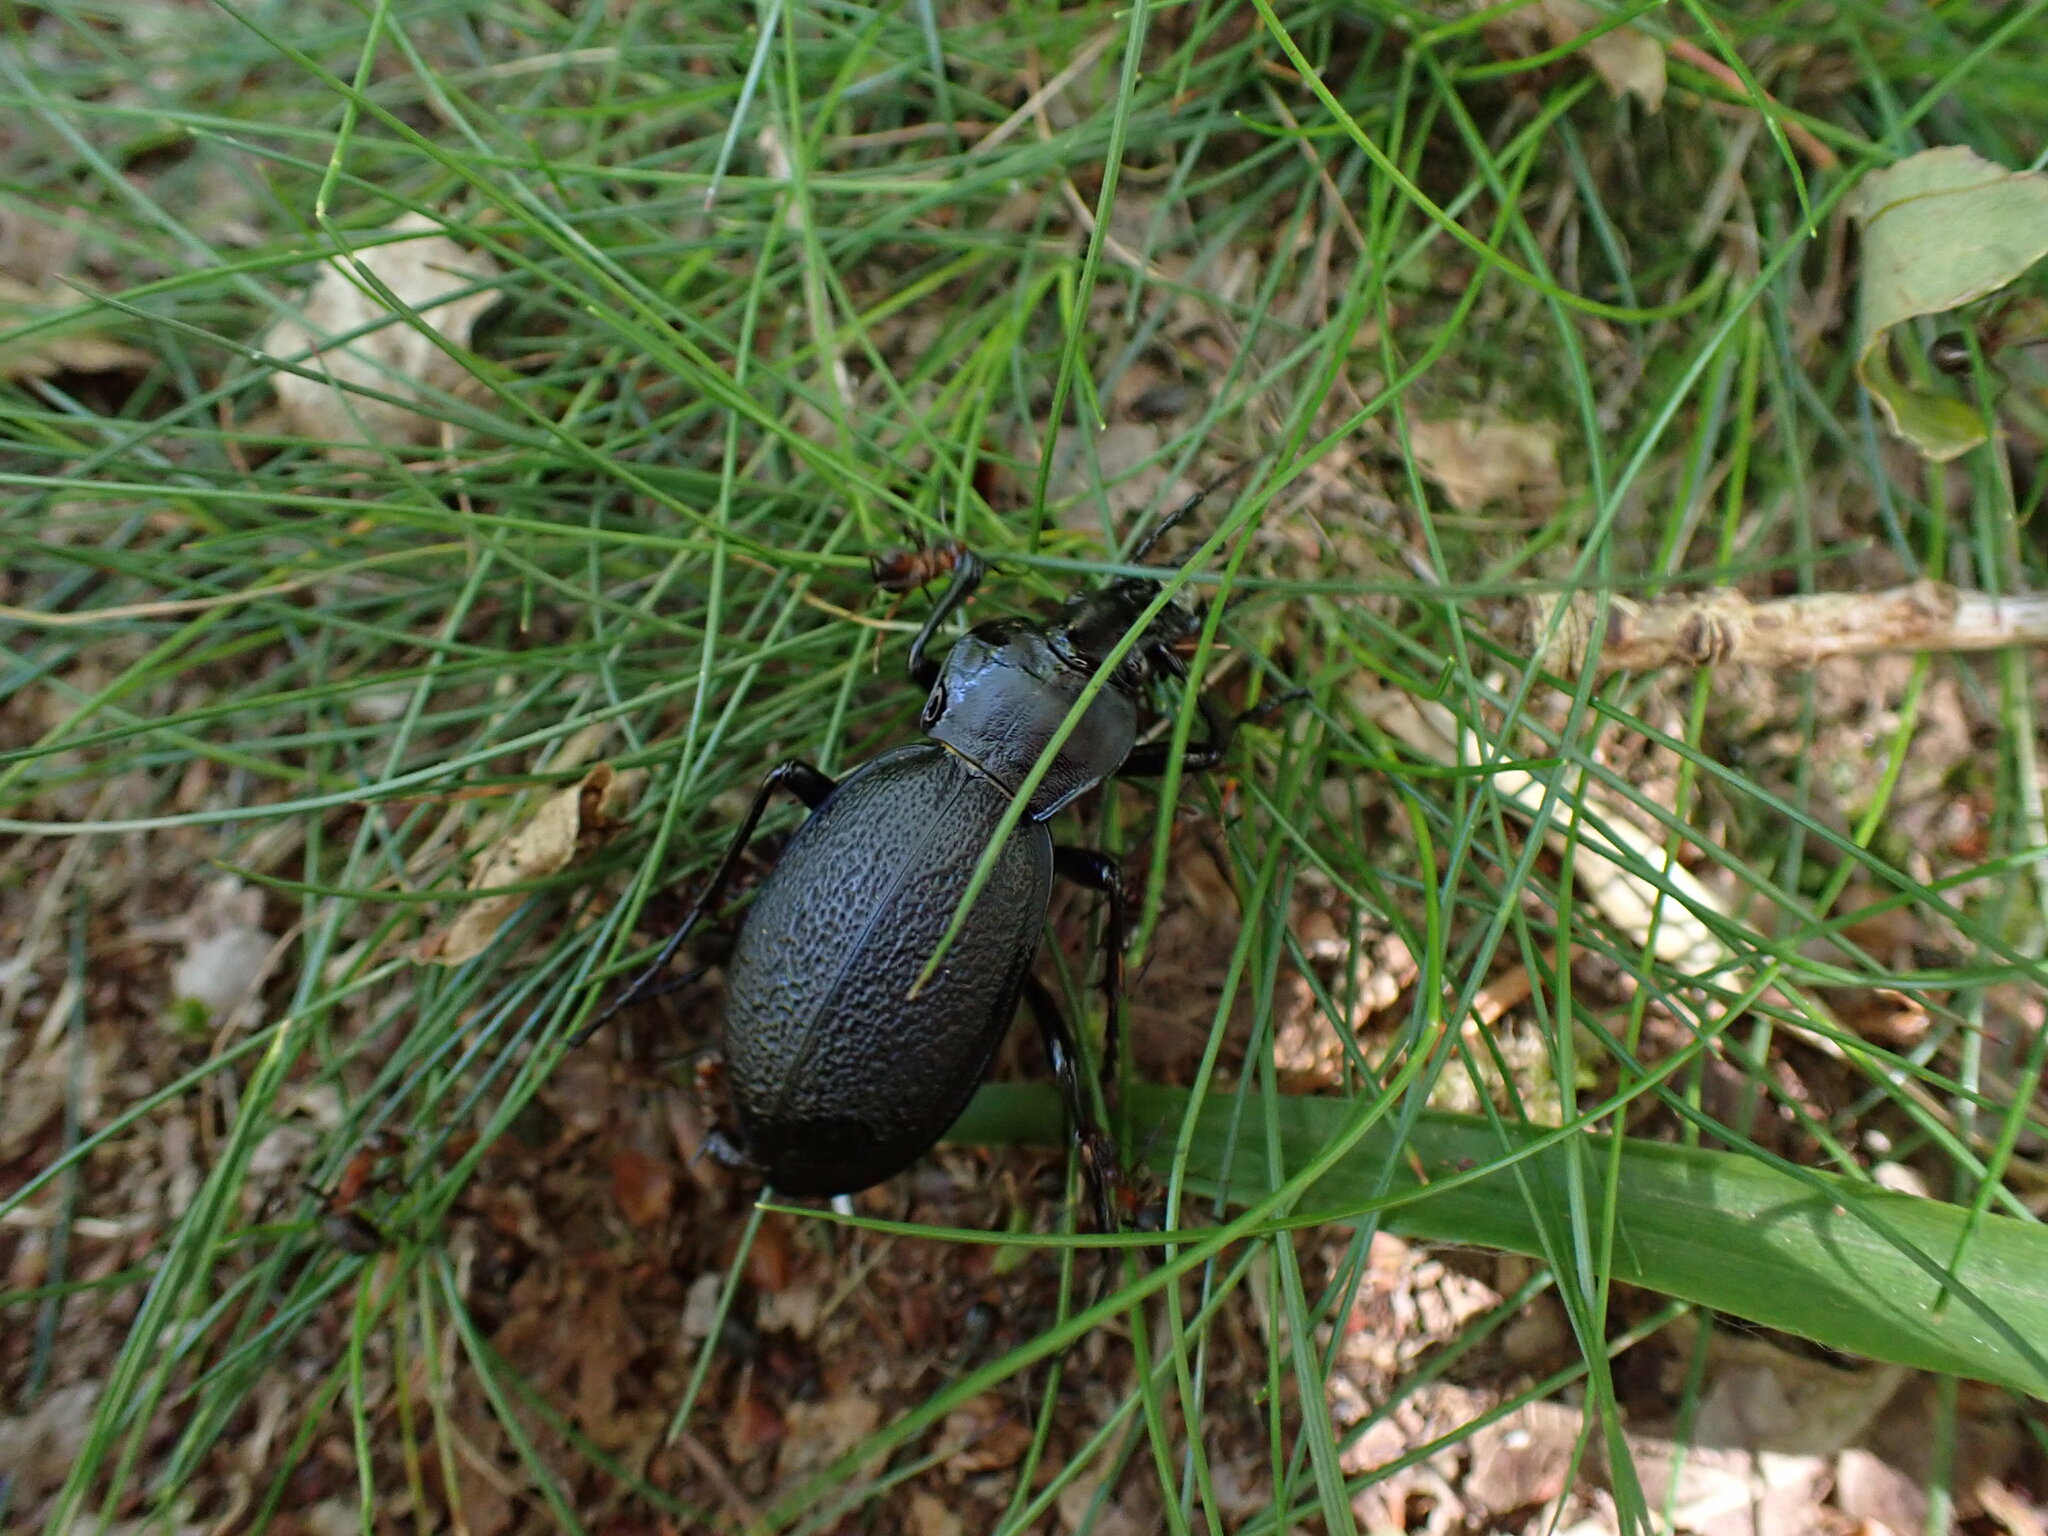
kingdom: Animalia
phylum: Arthropoda
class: Insecta
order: Coleoptera
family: Carabidae
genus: Carabus
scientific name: Carabus coriaceus
